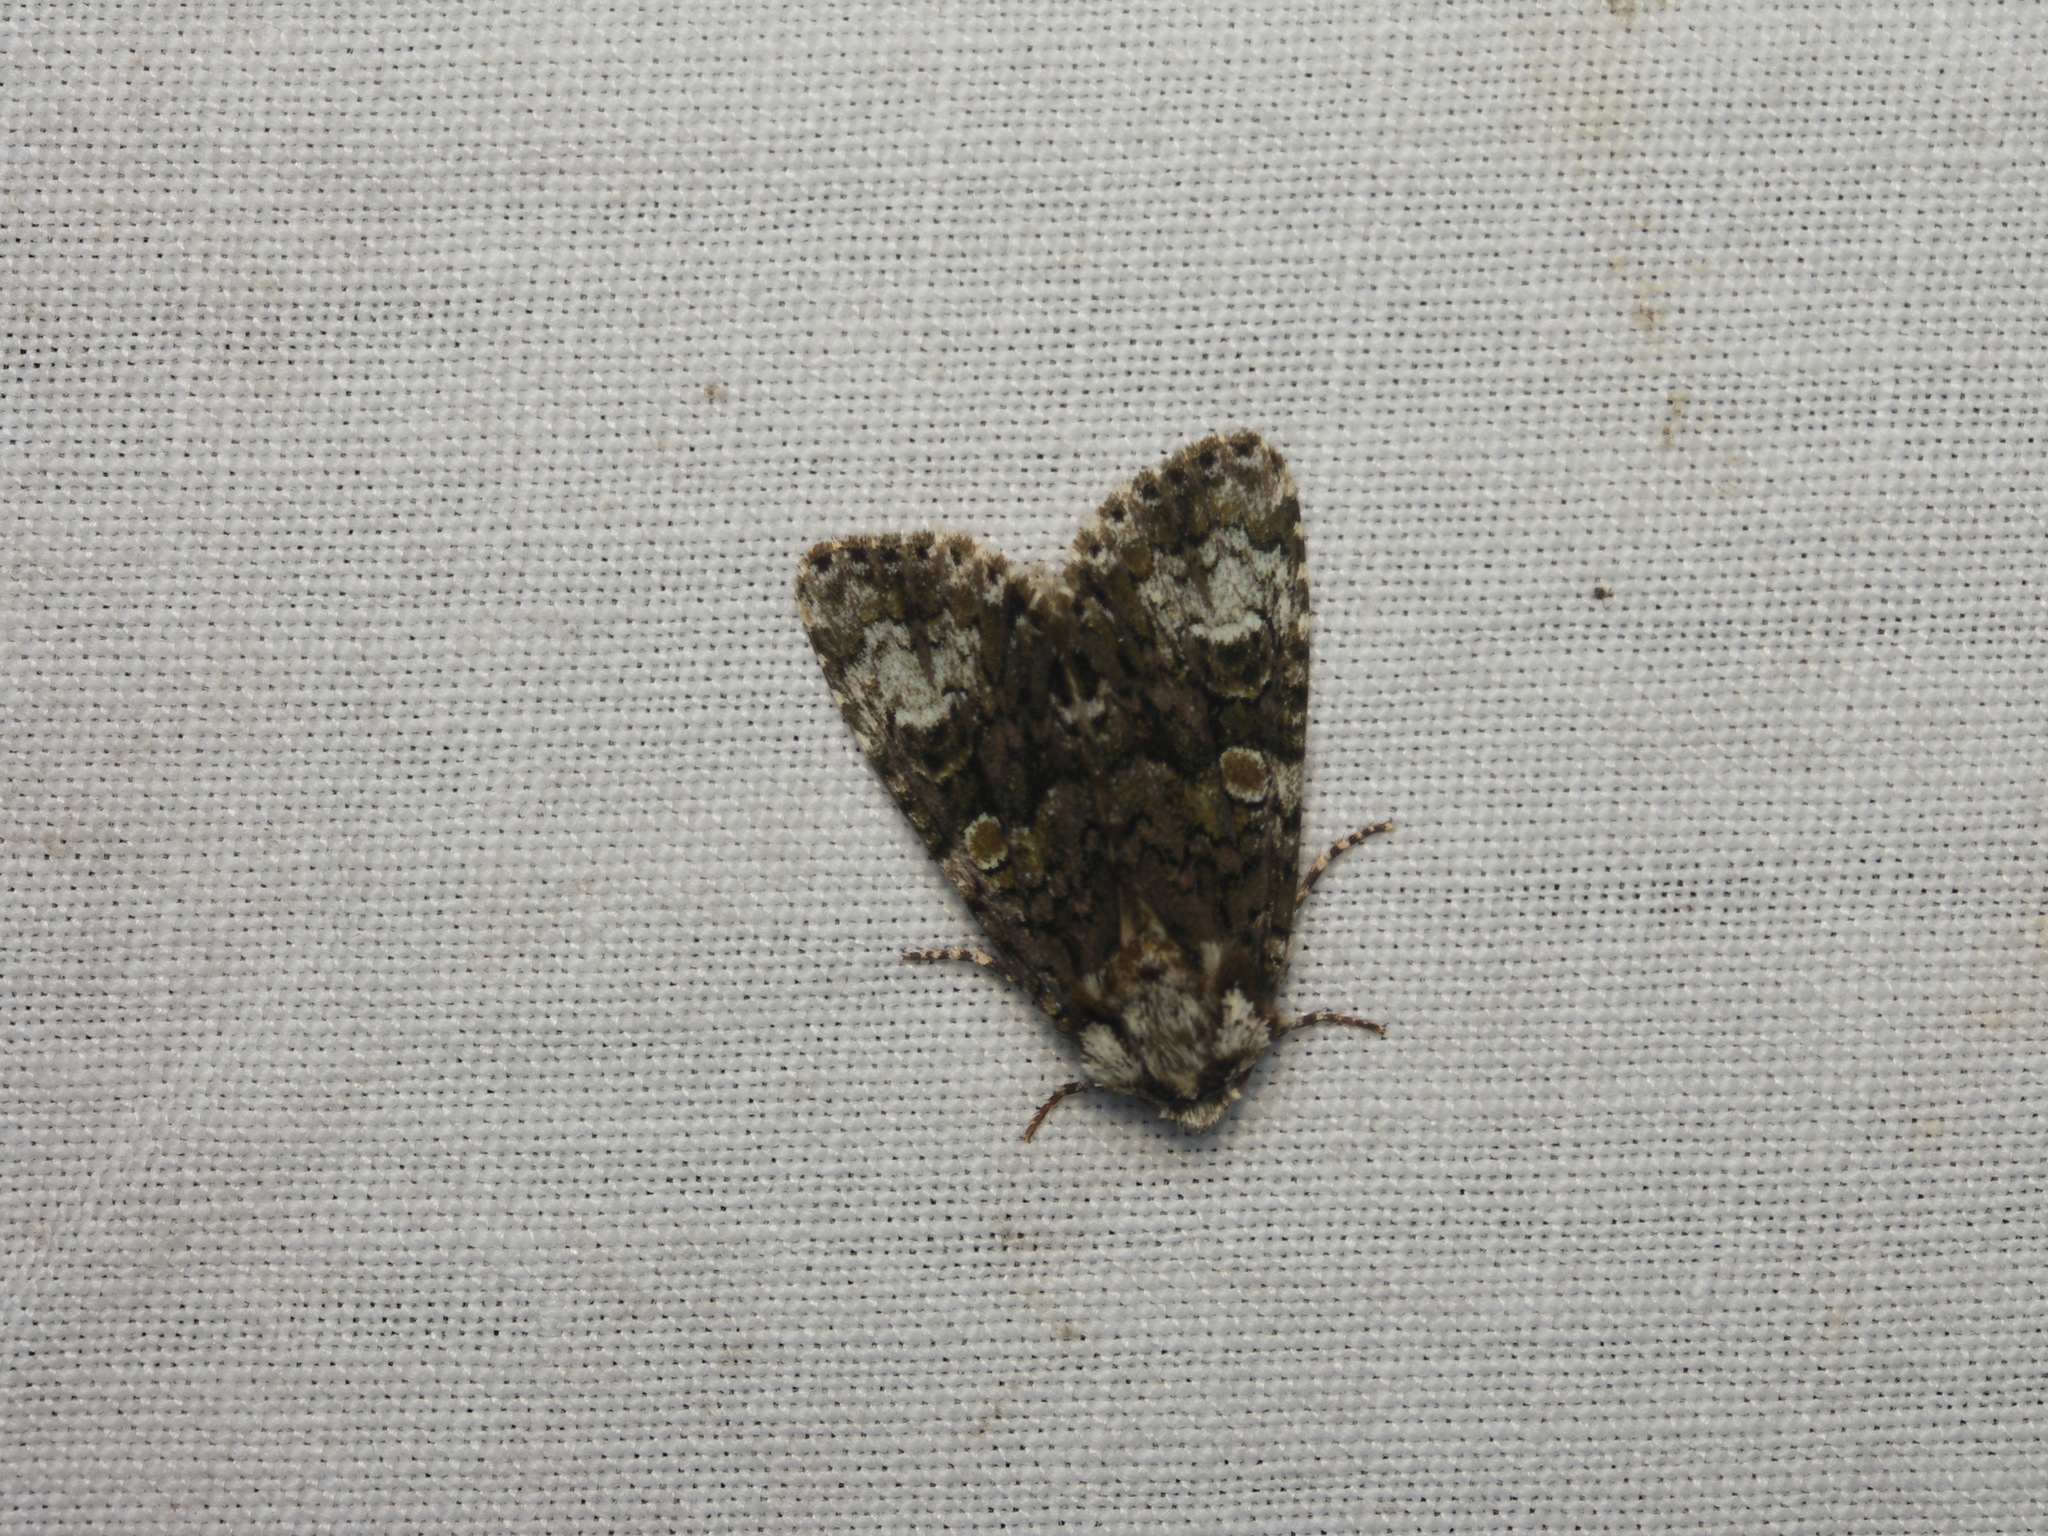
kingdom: Animalia
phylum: Arthropoda
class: Insecta
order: Lepidoptera
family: Noctuidae
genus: Craniophora
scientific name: Craniophora ligustri
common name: Coronet
